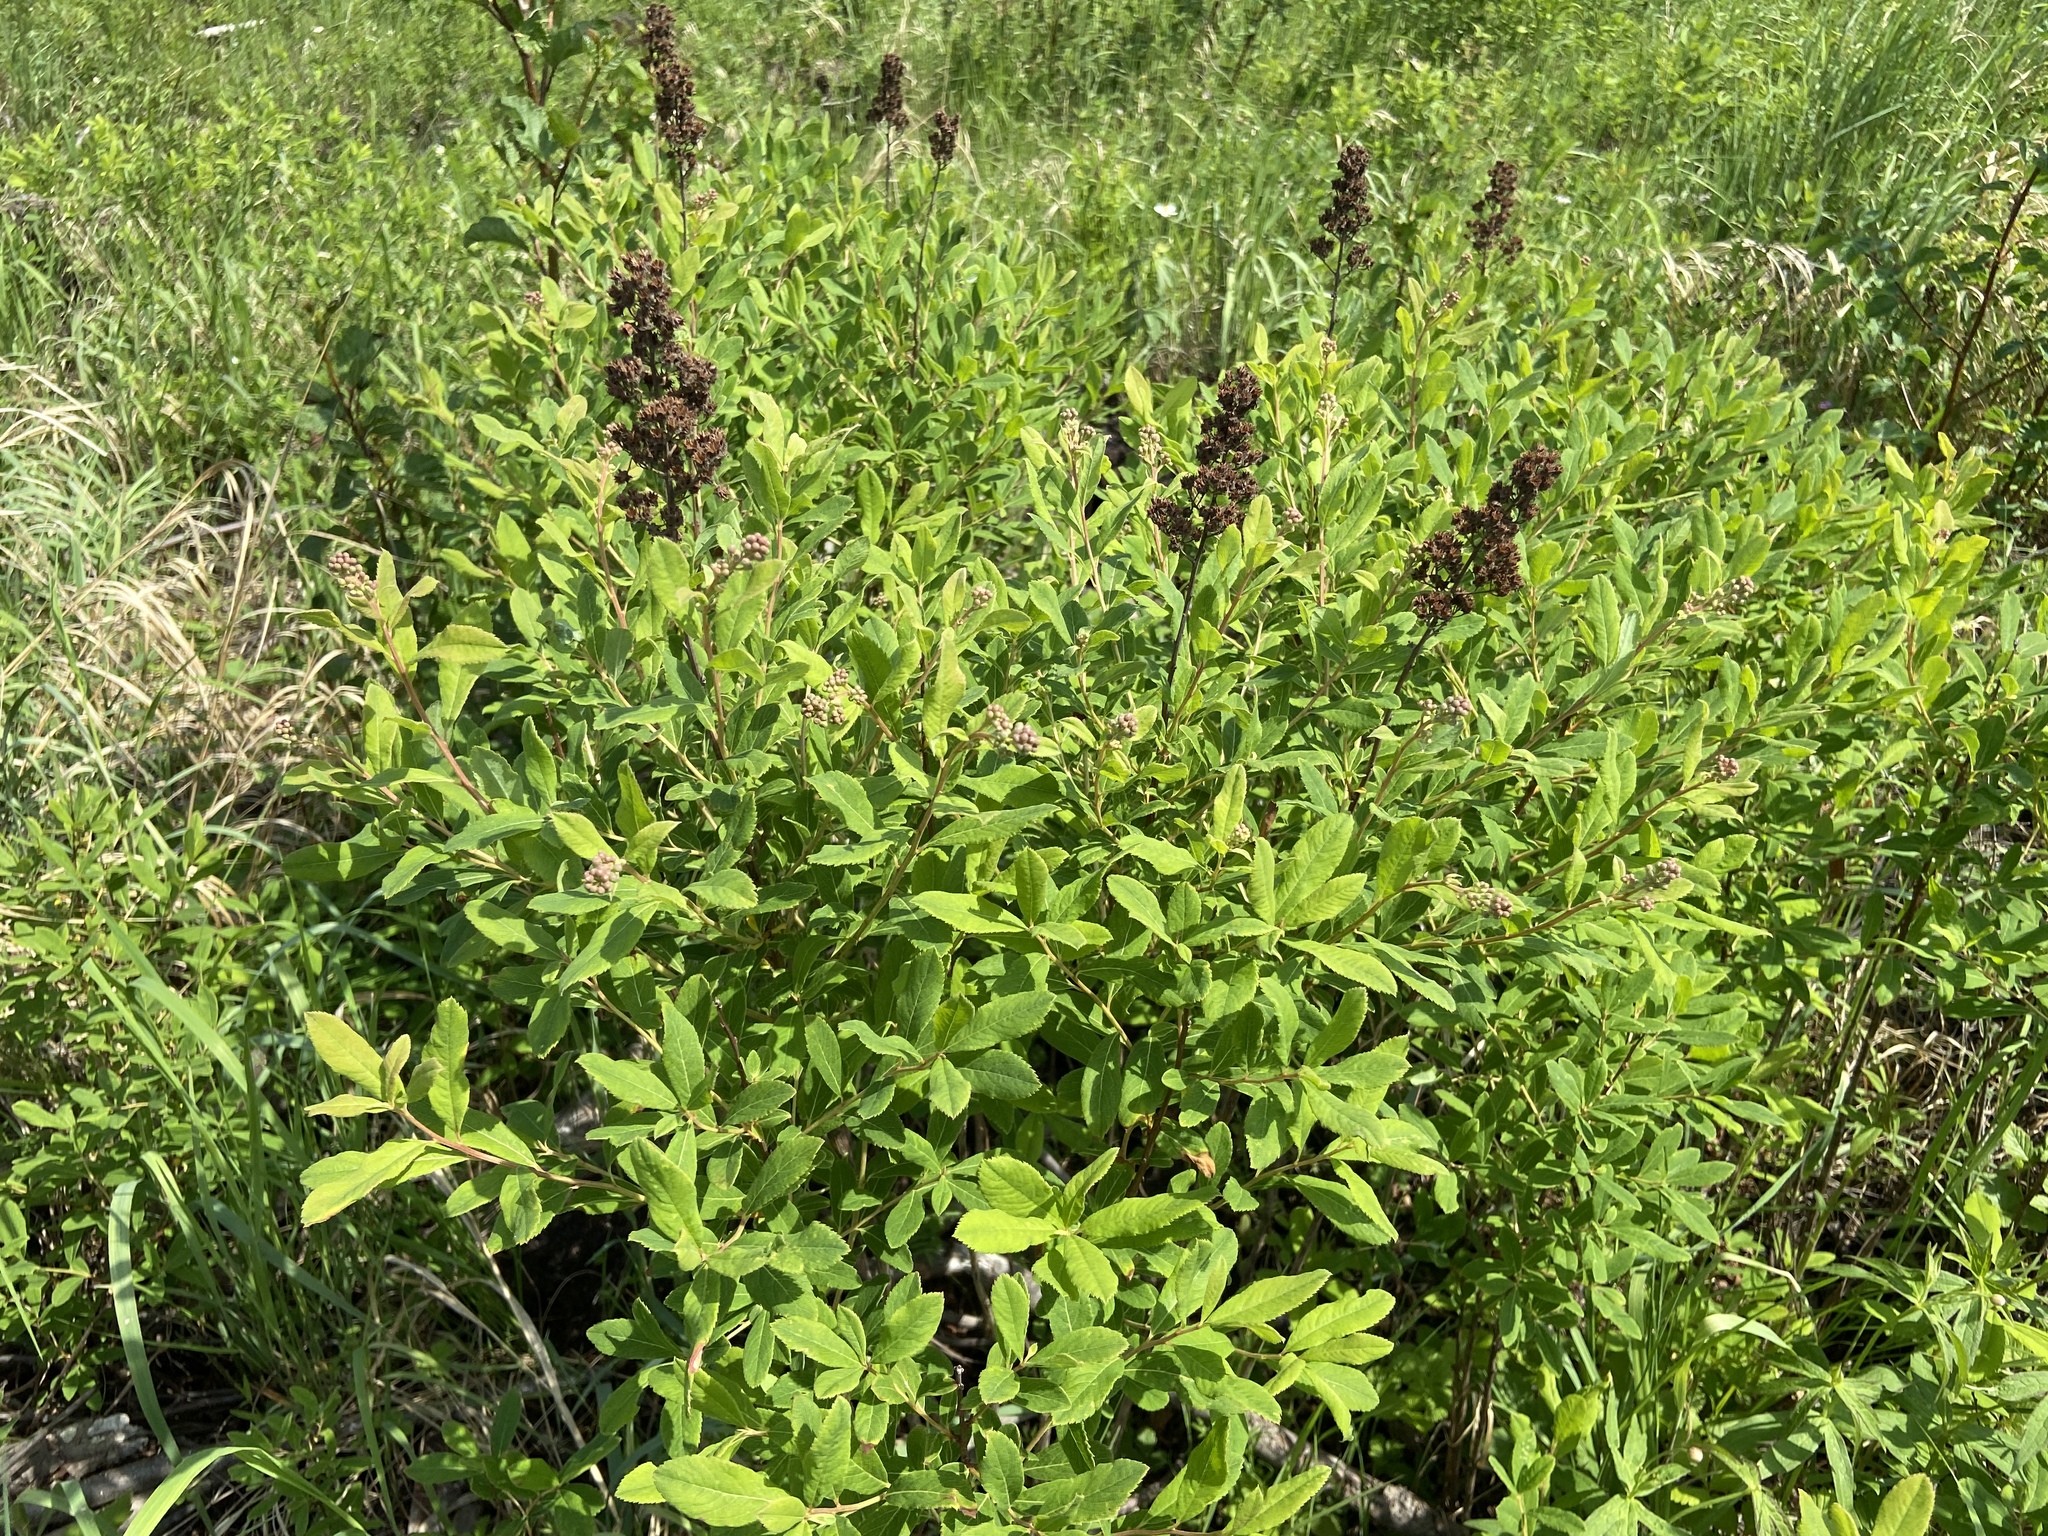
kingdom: Plantae
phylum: Tracheophyta
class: Magnoliopsida
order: Rosales
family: Rosaceae
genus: Spiraea
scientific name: Spiraea salicifolia
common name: Bridewort
